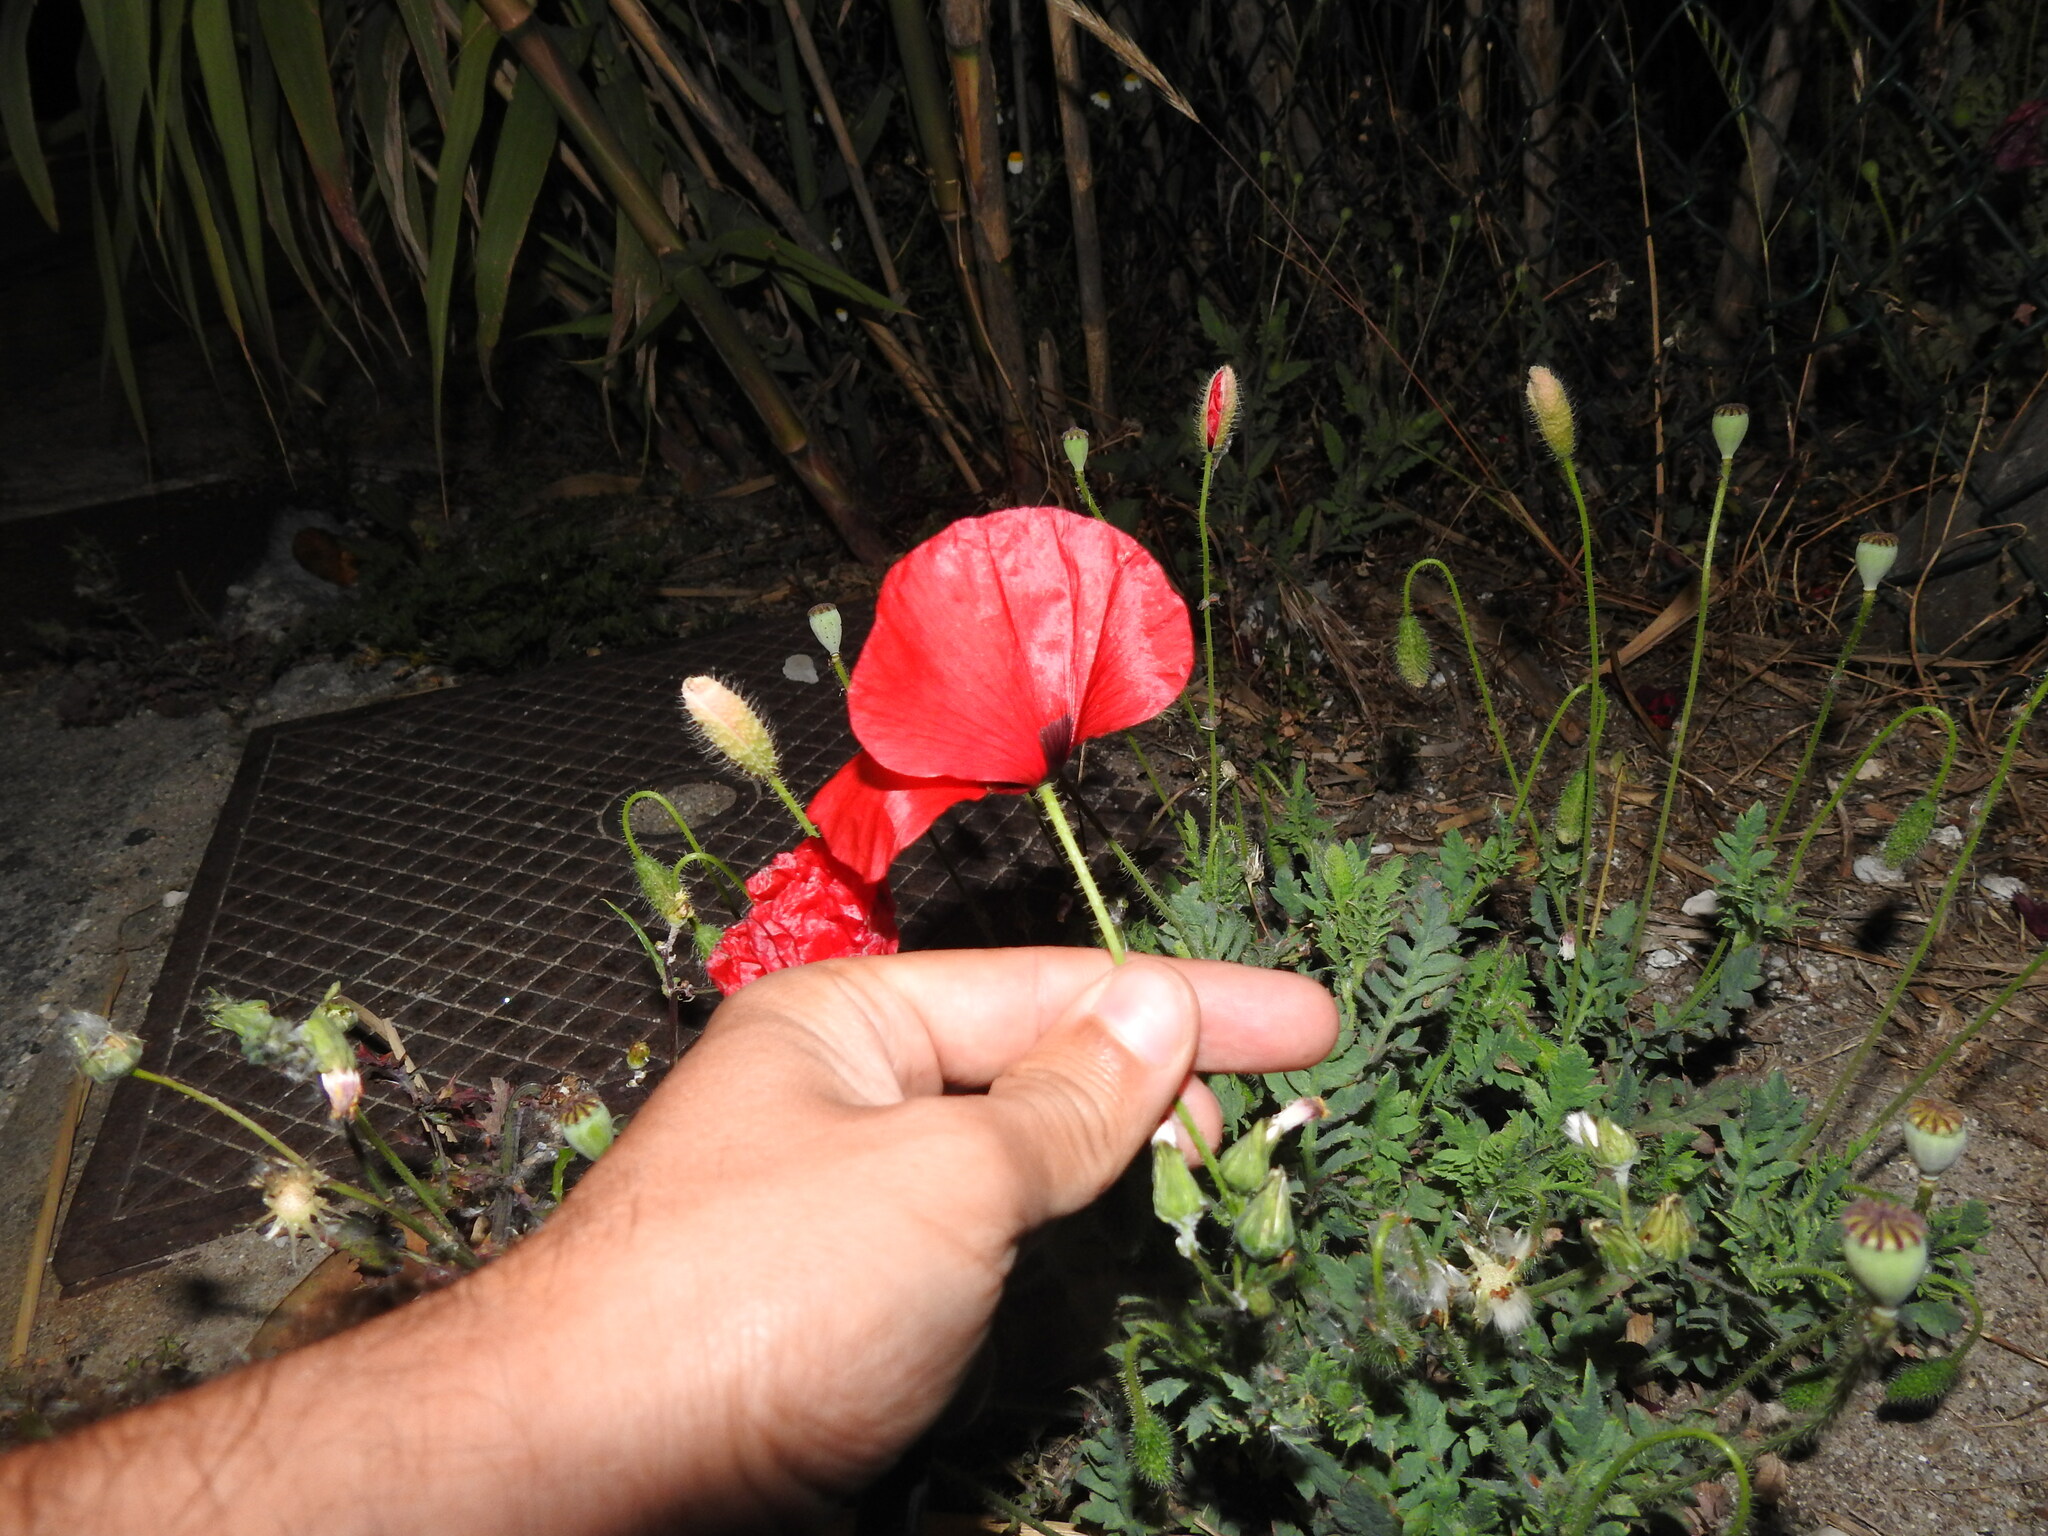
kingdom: Plantae
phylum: Tracheophyta
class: Magnoliopsida
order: Ranunculales
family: Papaveraceae
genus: Papaver
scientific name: Papaver rhoeas
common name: Corn poppy
